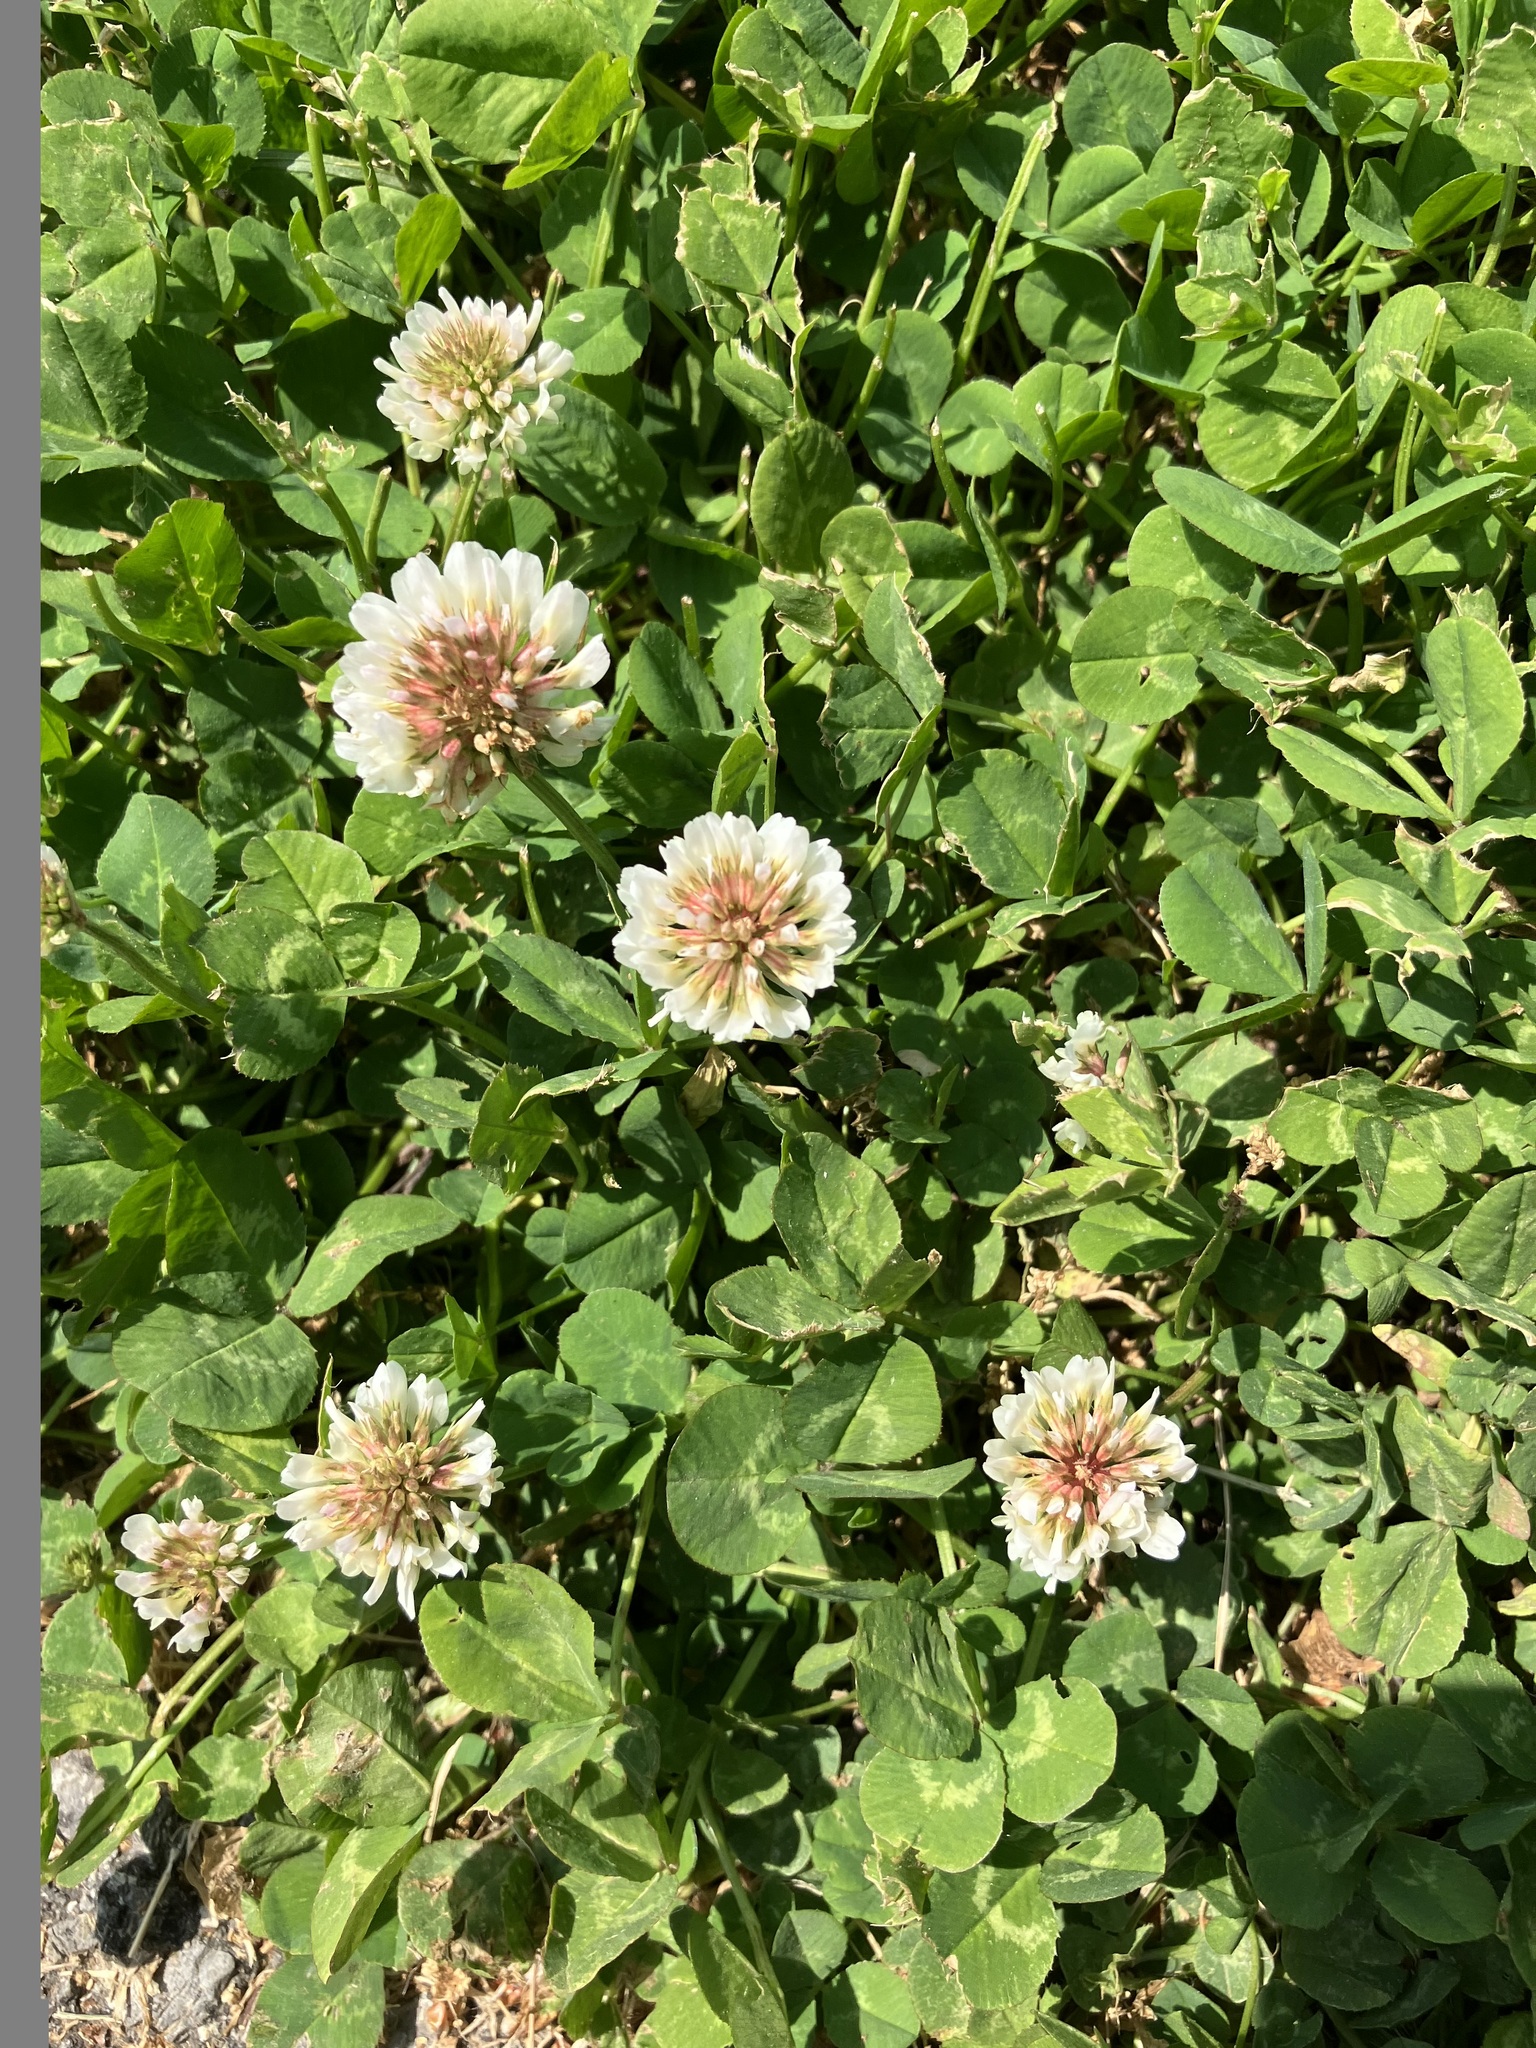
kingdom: Plantae
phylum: Tracheophyta
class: Magnoliopsida
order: Fabales
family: Fabaceae
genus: Trifolium
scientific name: Trifolium repens
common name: White clover
